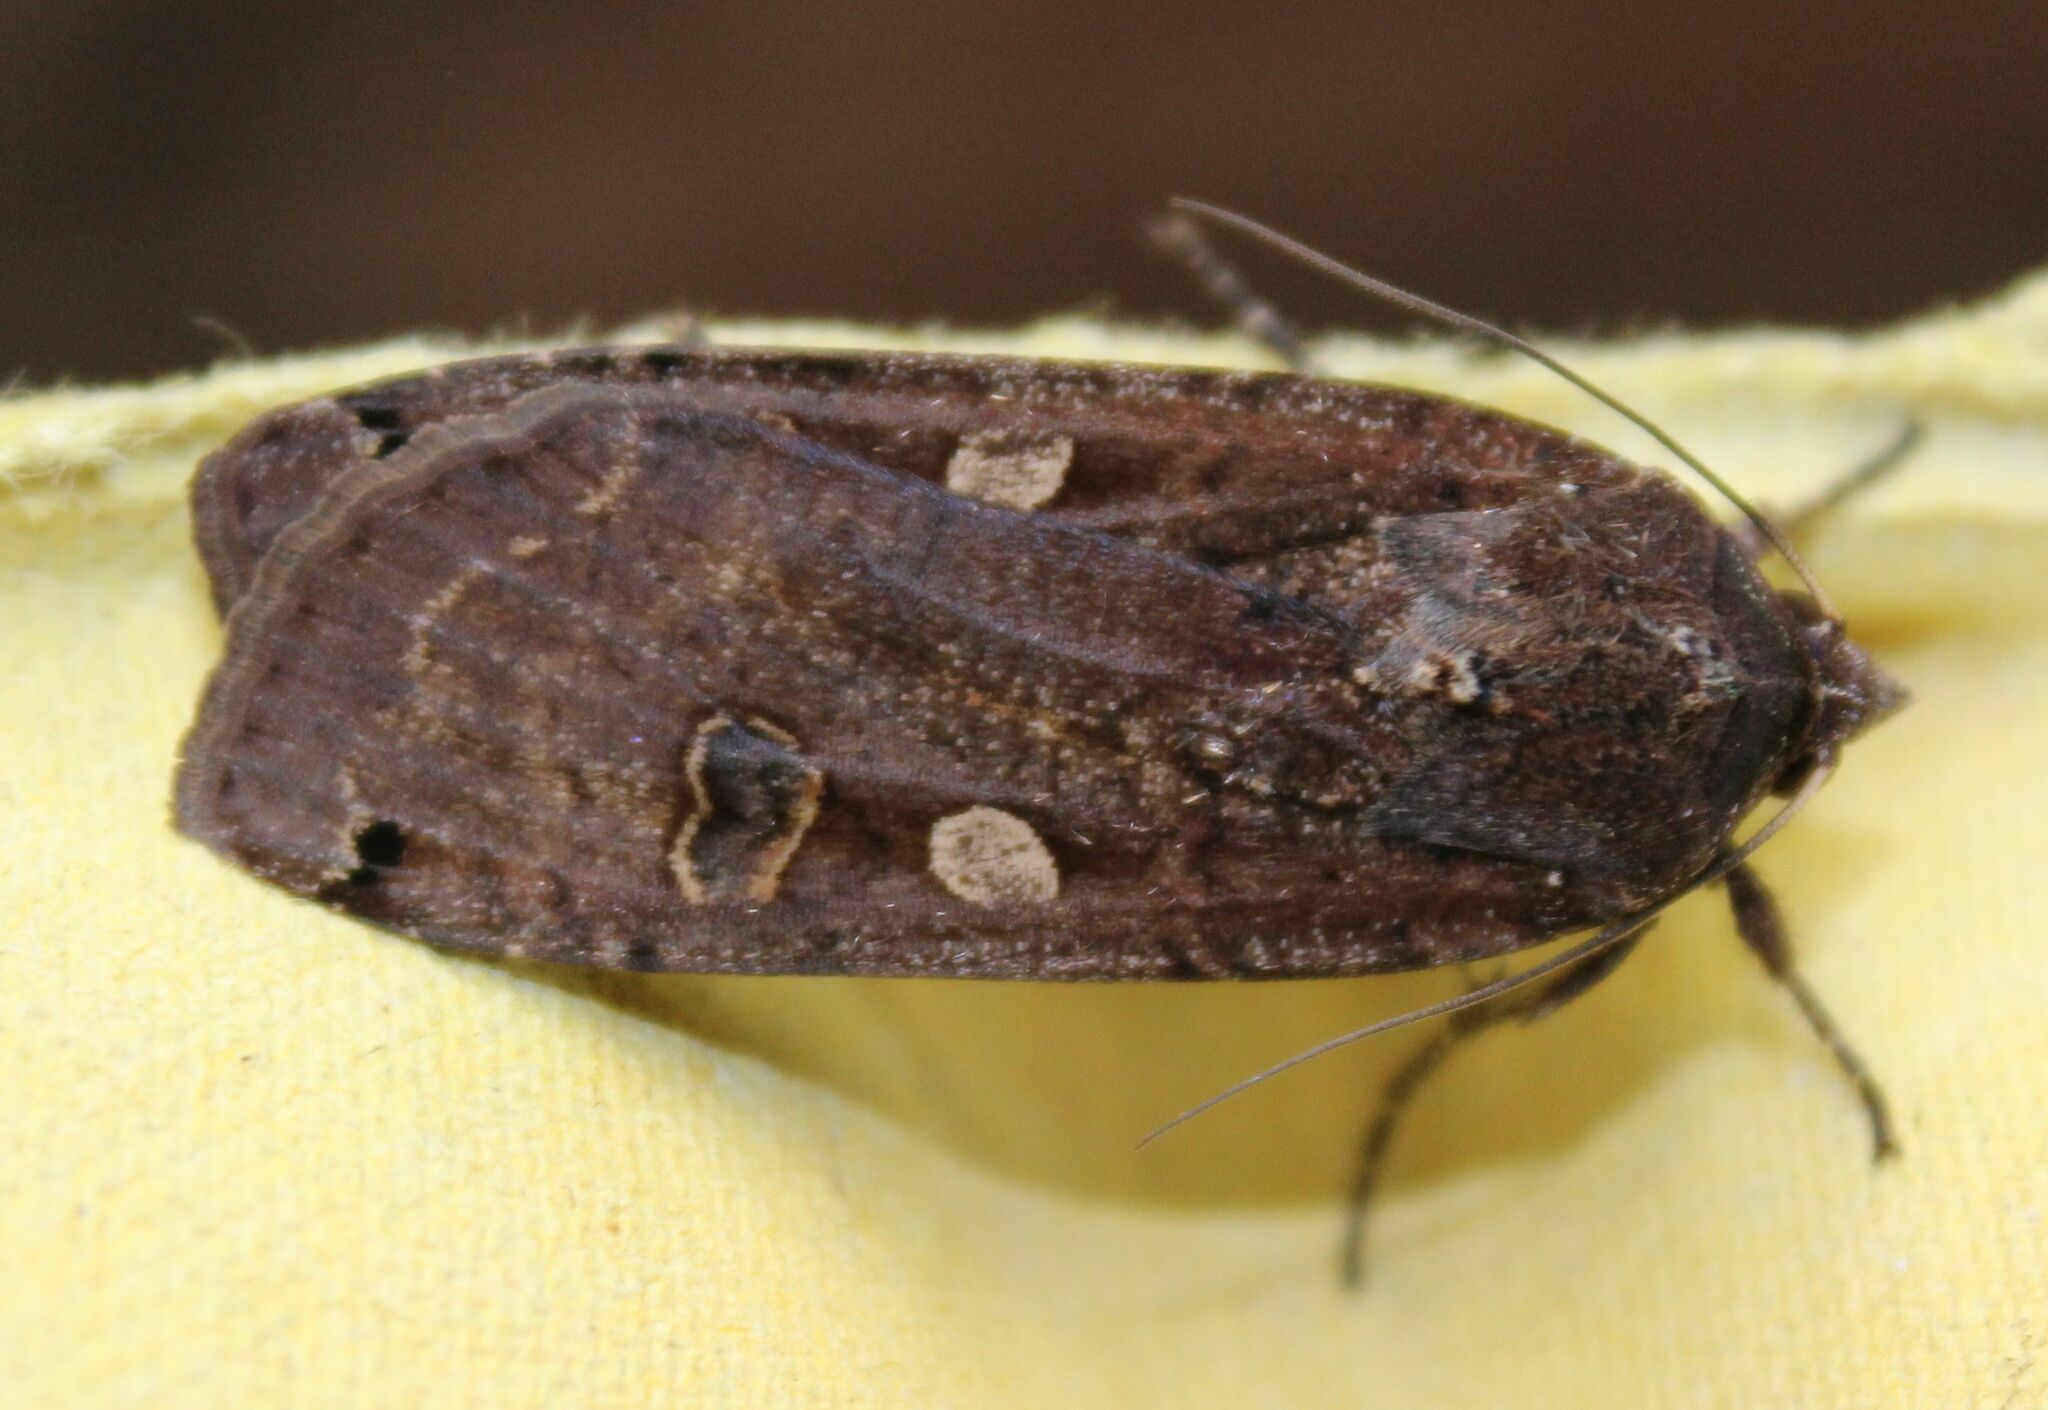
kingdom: Animalia
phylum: Arthropoda
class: Insecta
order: Lepidoptera
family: Noctuidae
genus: Noctua
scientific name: Noctua pronuba
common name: Large yellow underwing
